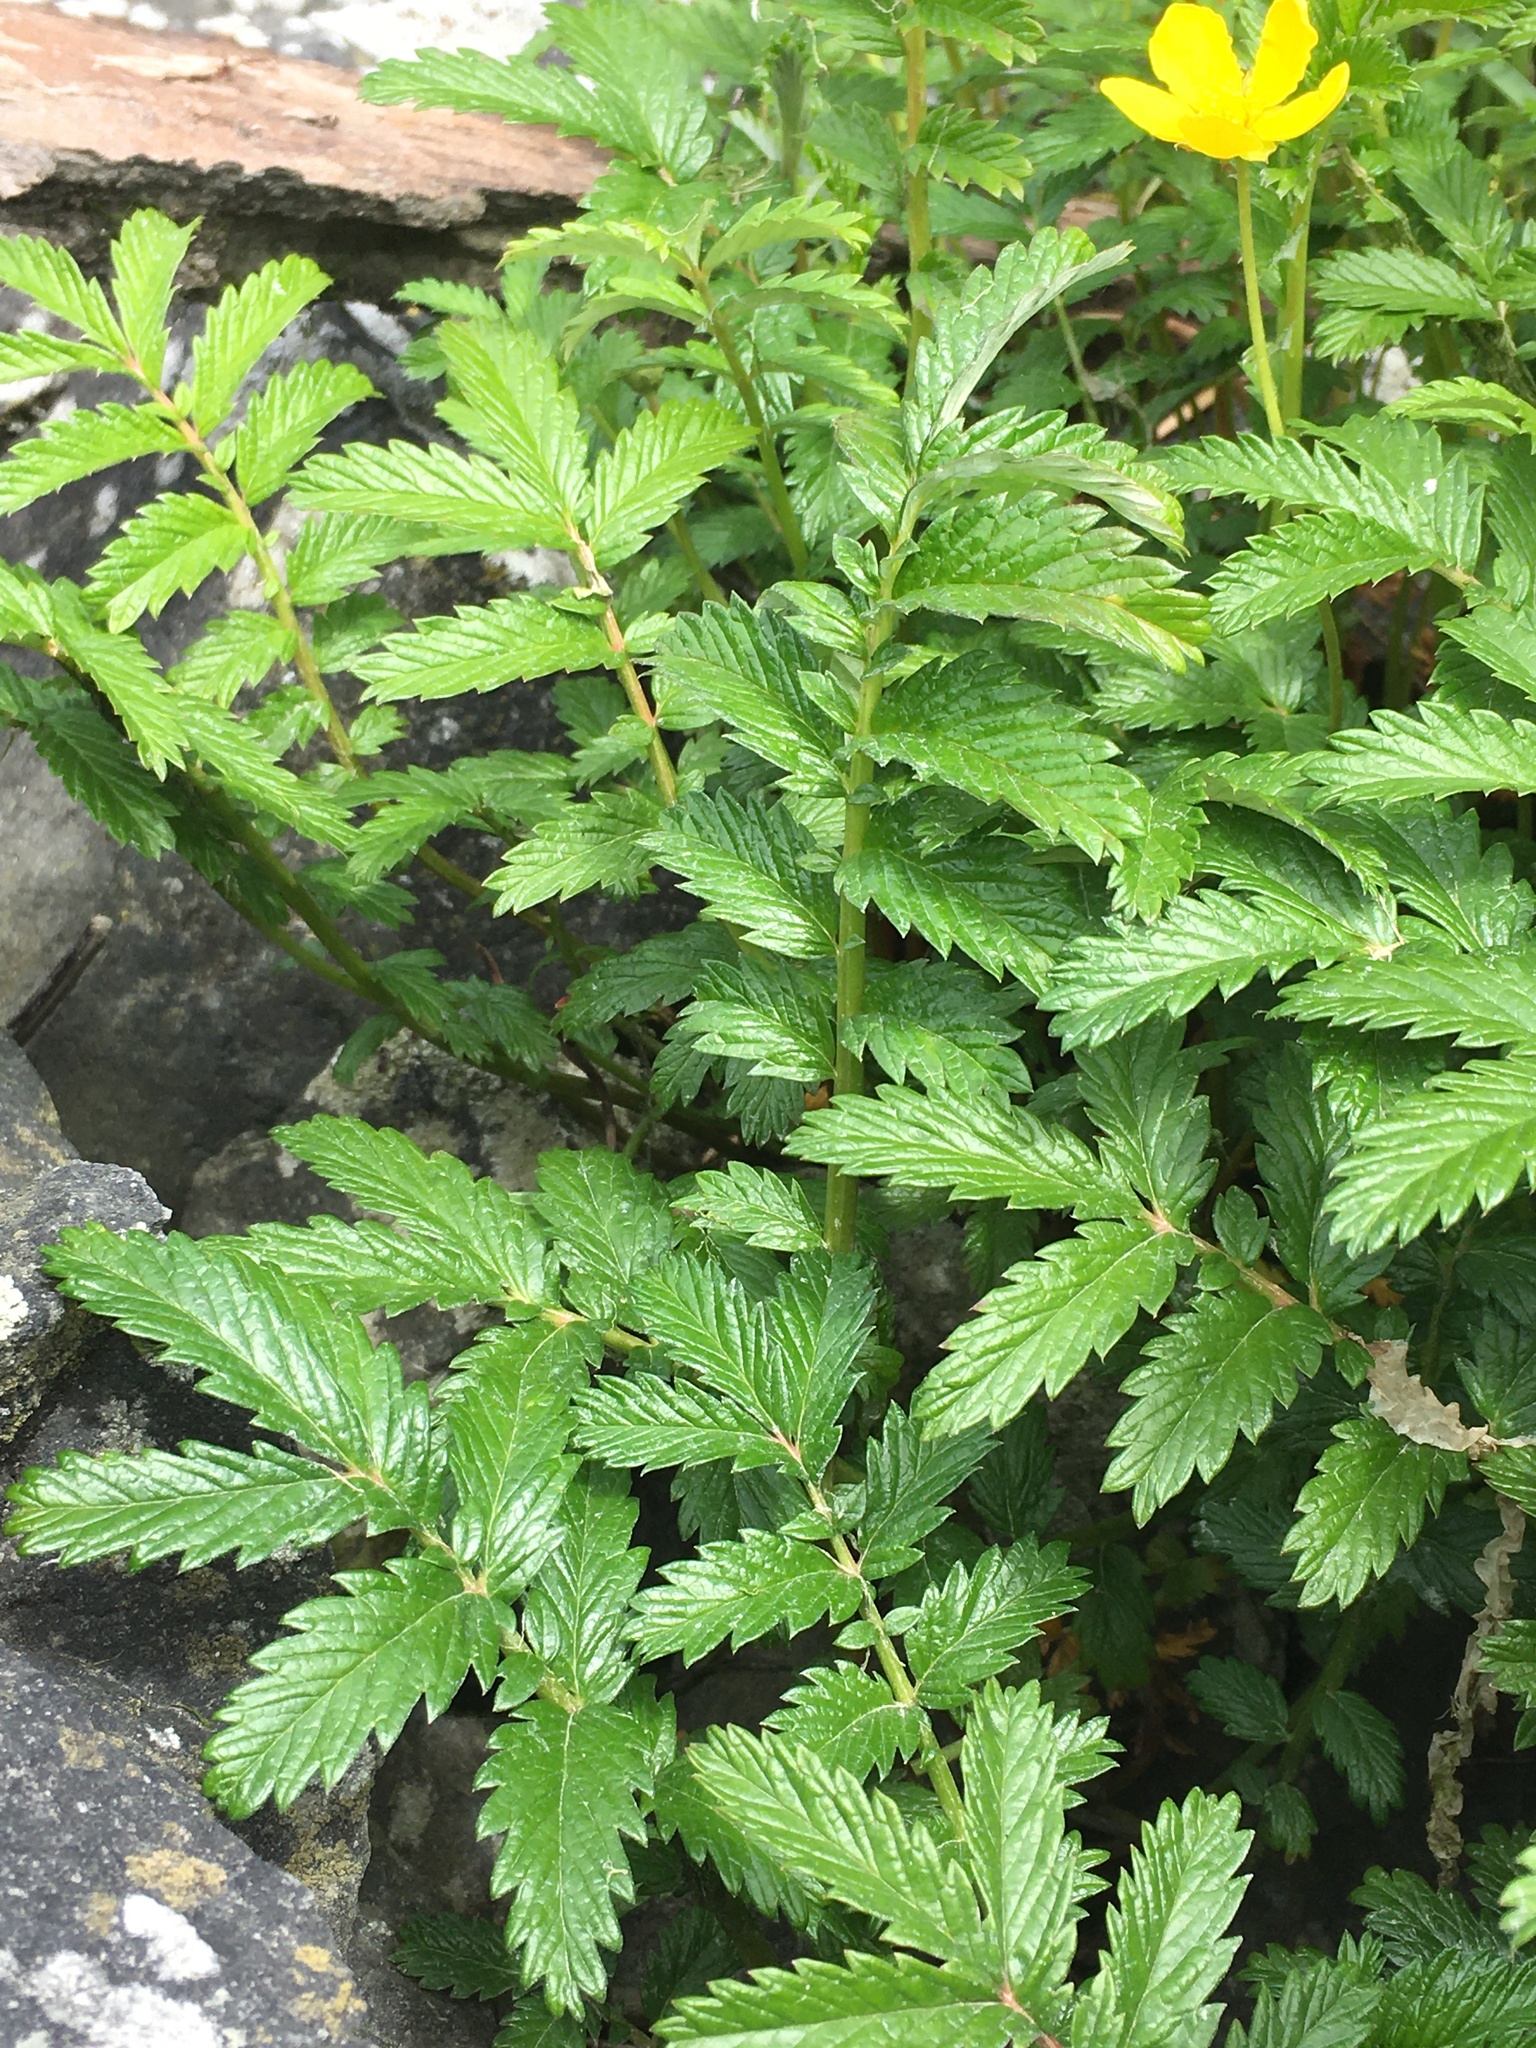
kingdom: Plantae
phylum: Tracheophyta
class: Magnoliopsida
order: Rosales
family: Rosaceae
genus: Argentina
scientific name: Argentina anserina
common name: Common silverweed
